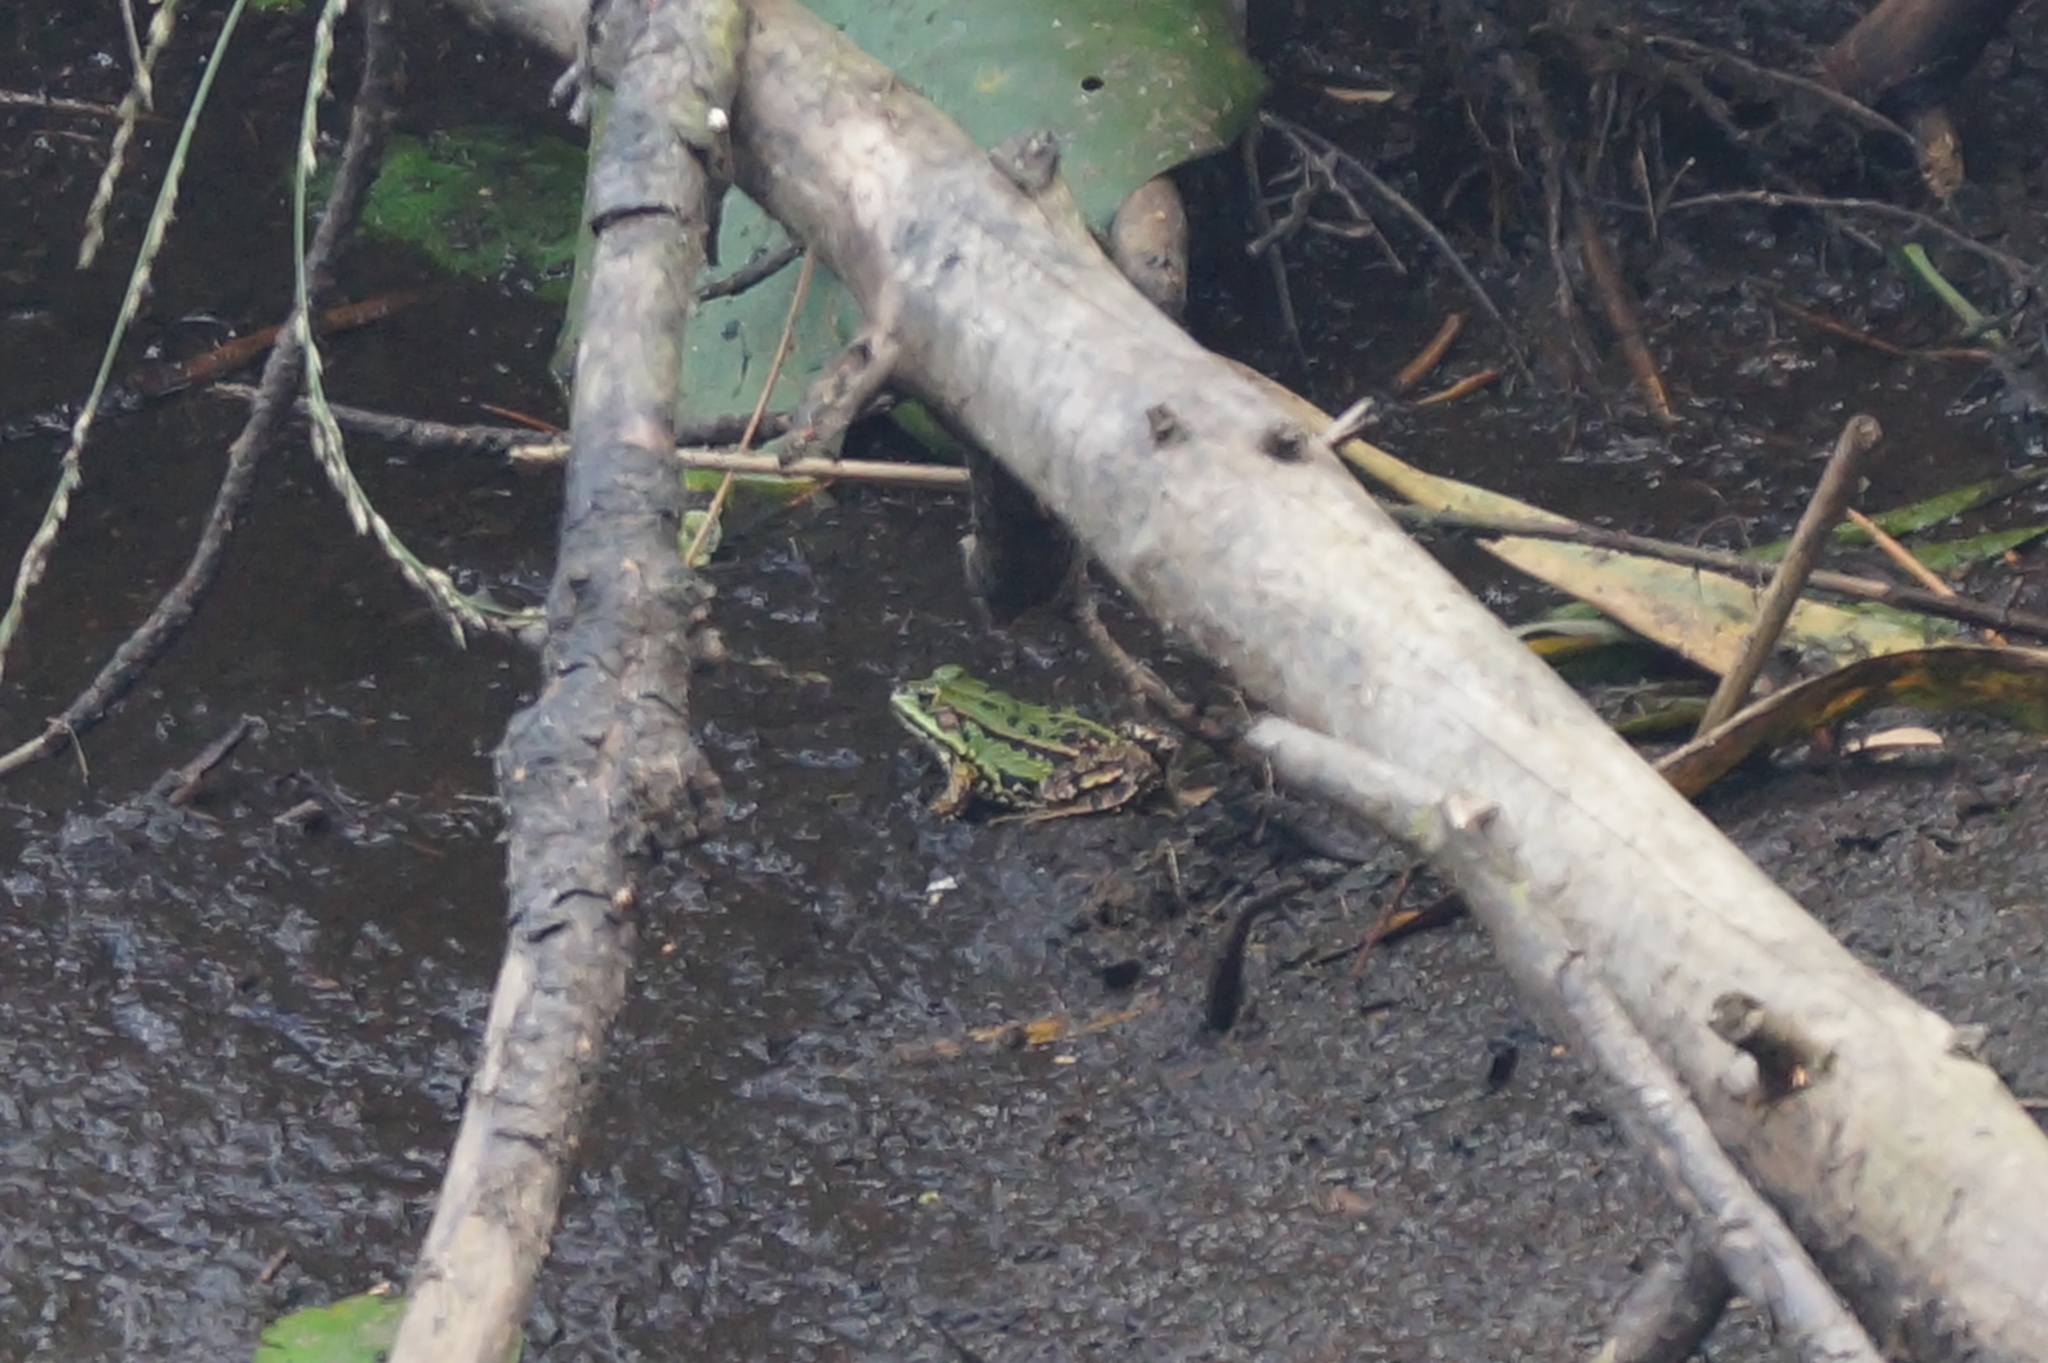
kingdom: Animalia
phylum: Chordata
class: Amphibia
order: Anura
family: Ranidae
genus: Pelophylax
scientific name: Pelophylax
